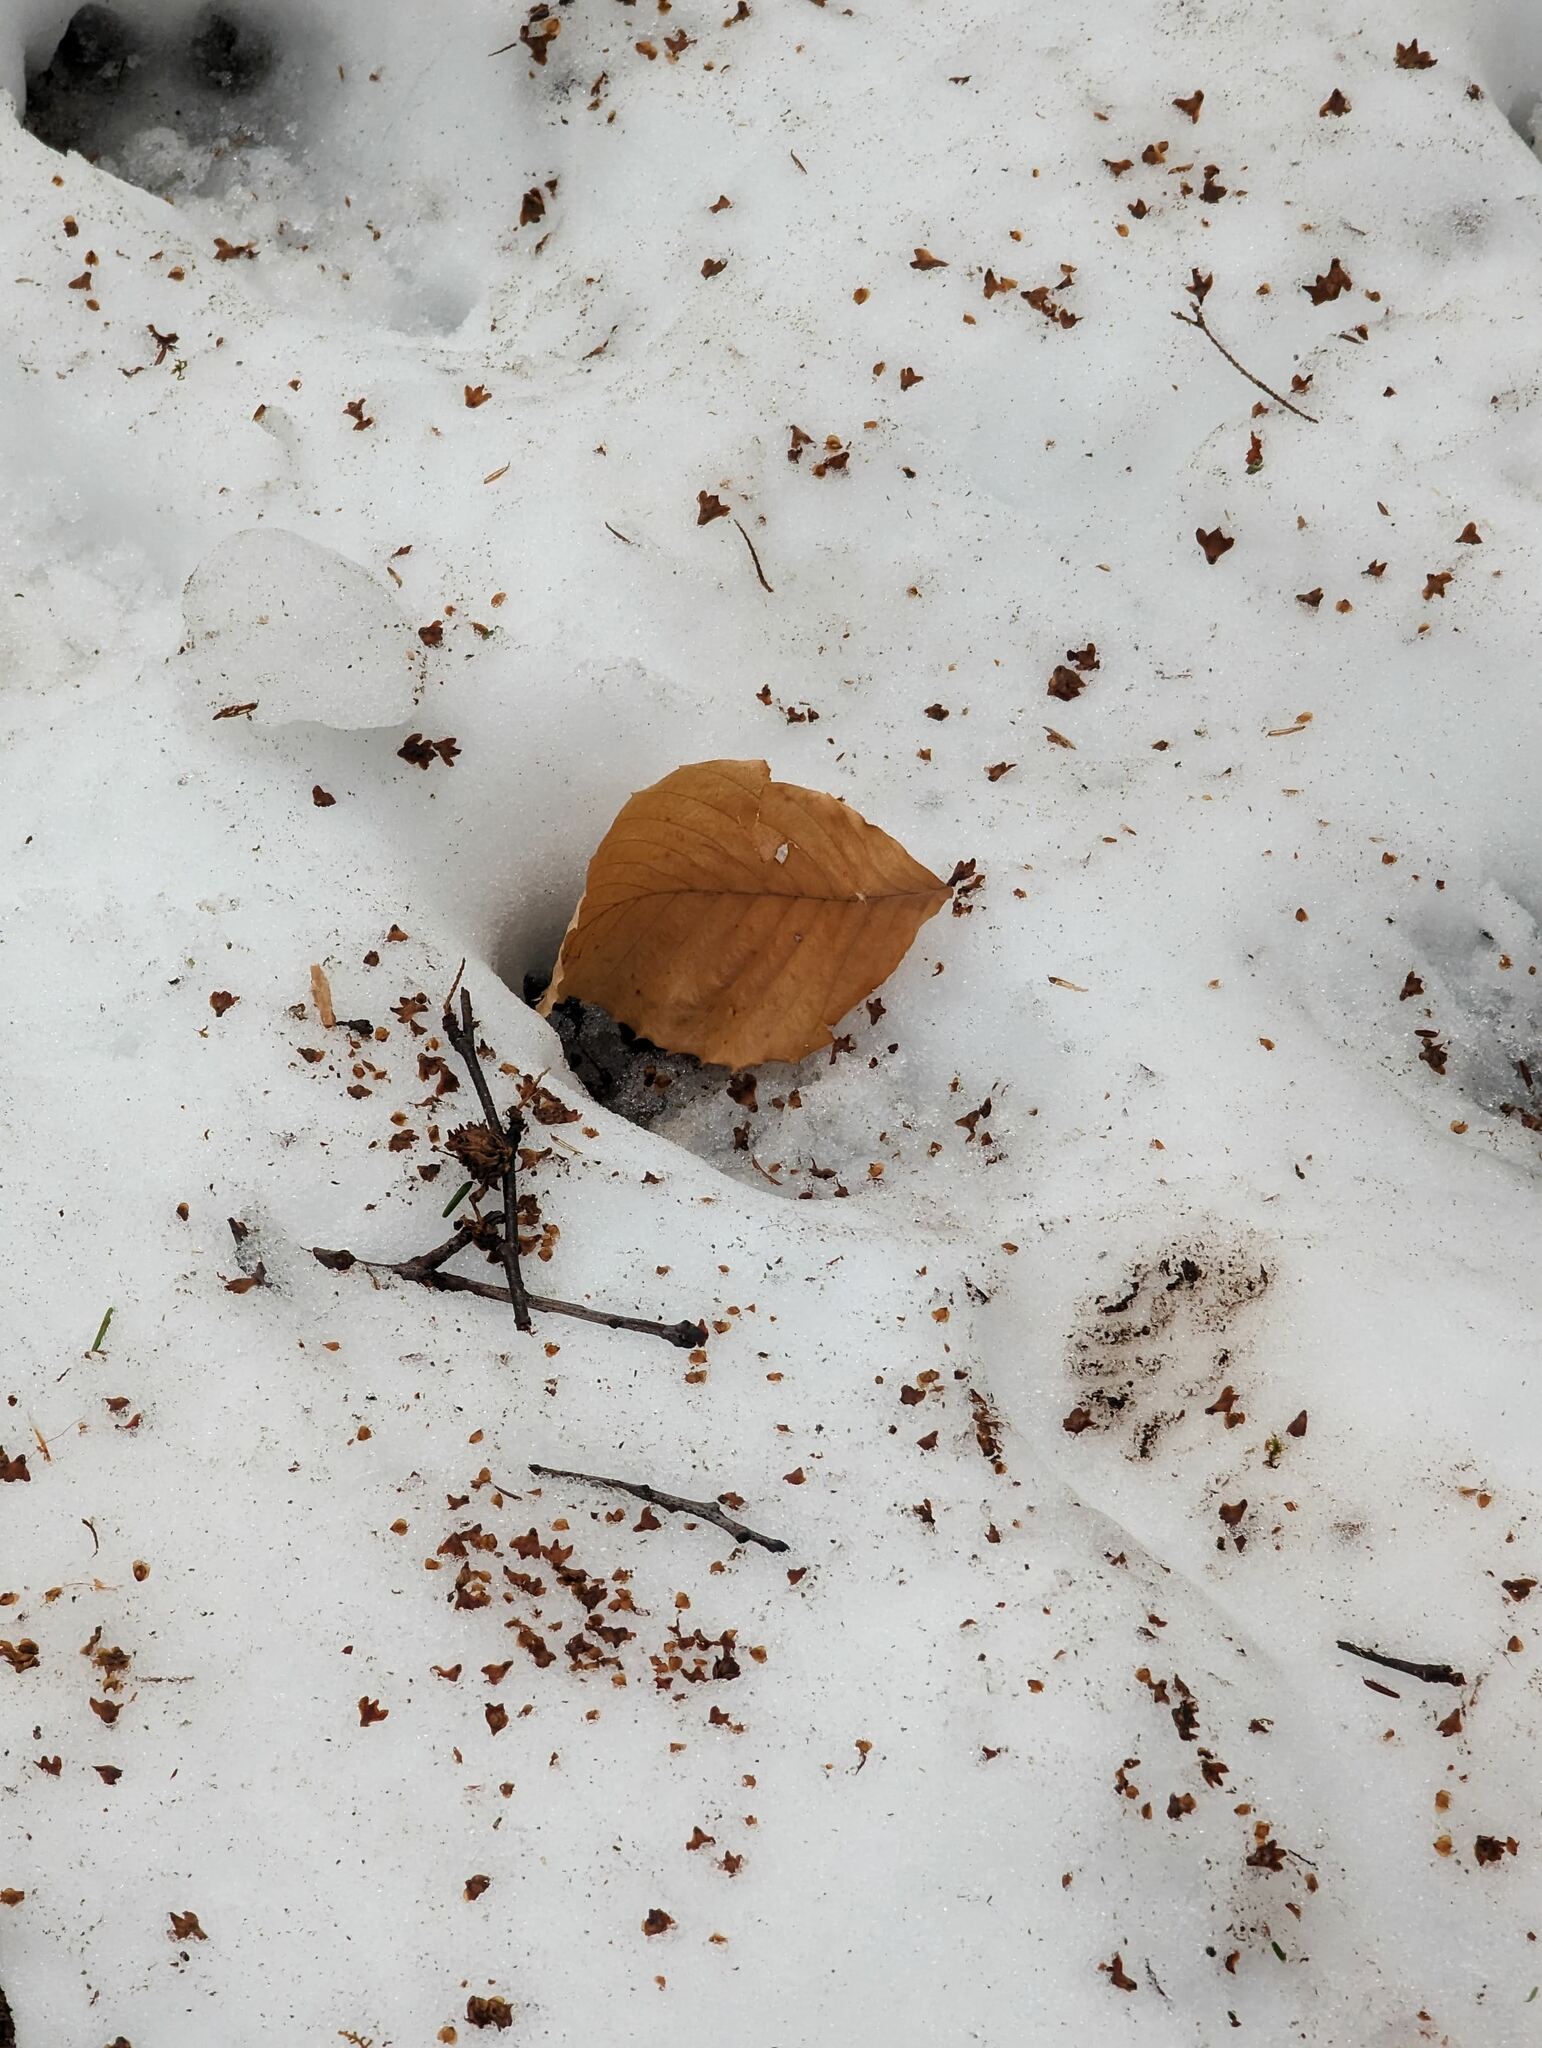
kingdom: Plantae
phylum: Tracheophyta
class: Magnoliopsida
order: Fagales
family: Fagaceae
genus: Fagus
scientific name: Fagus grandifolia
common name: American beech
